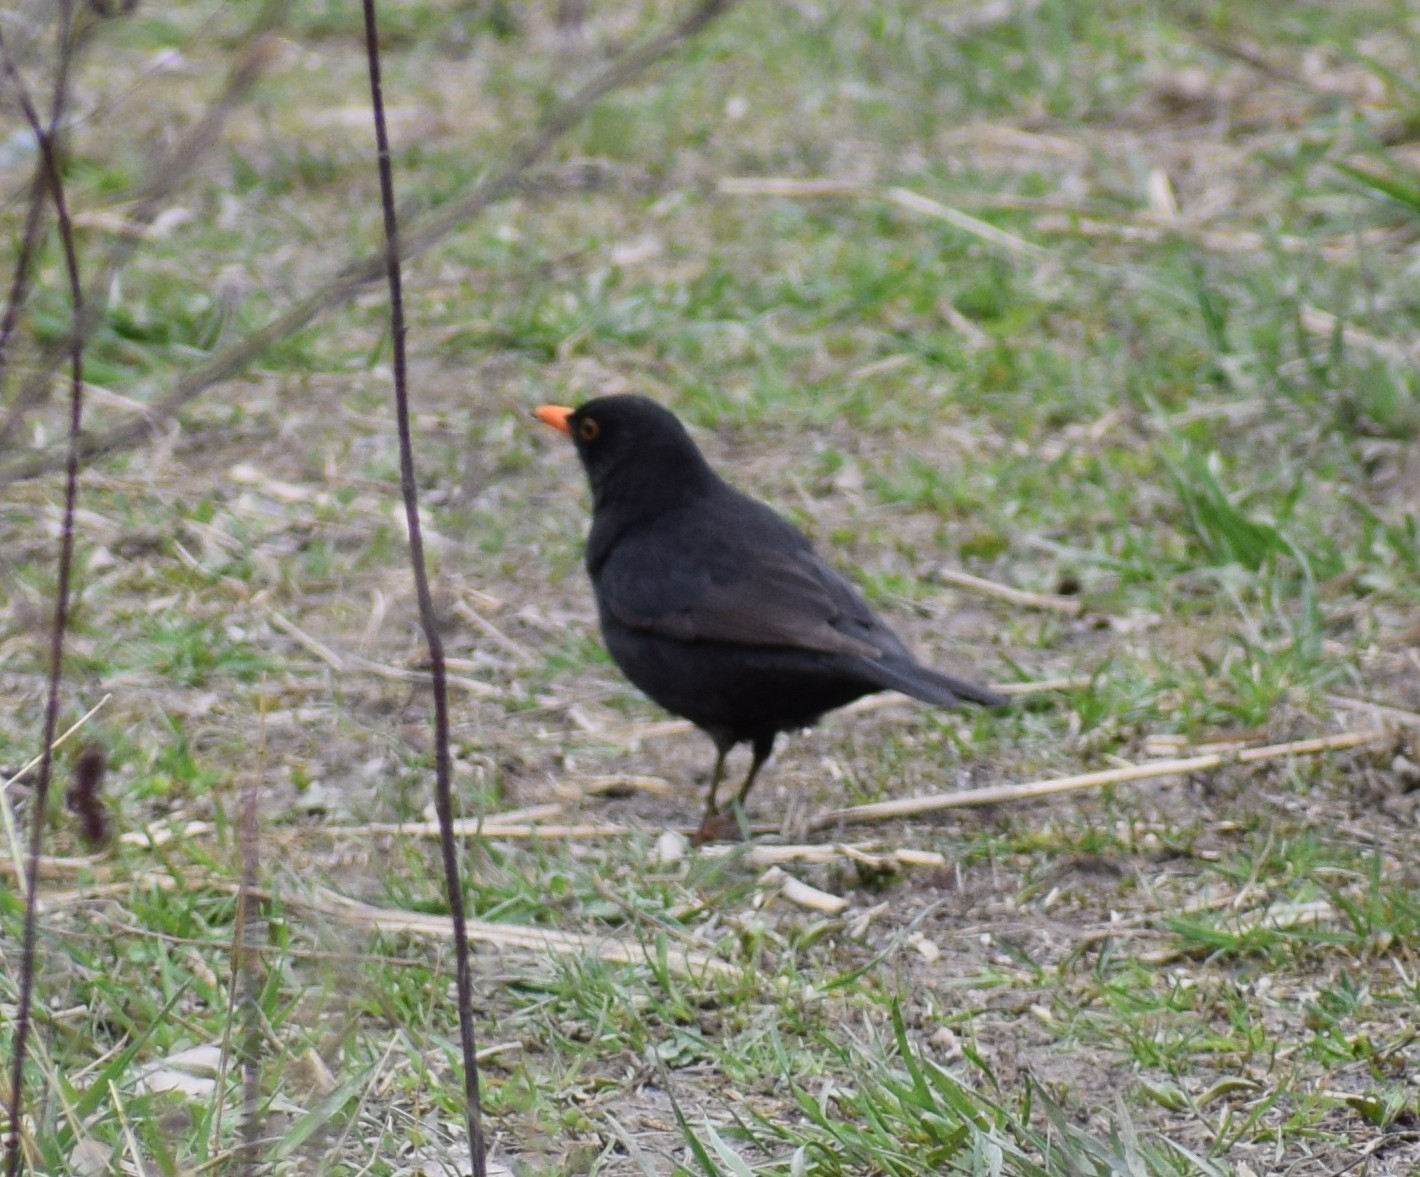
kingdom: Animalia
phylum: Chordata
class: Aves
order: Passeriformes
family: Turdidae
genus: Turdus
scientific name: Turdus merula
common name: Common blackbird
